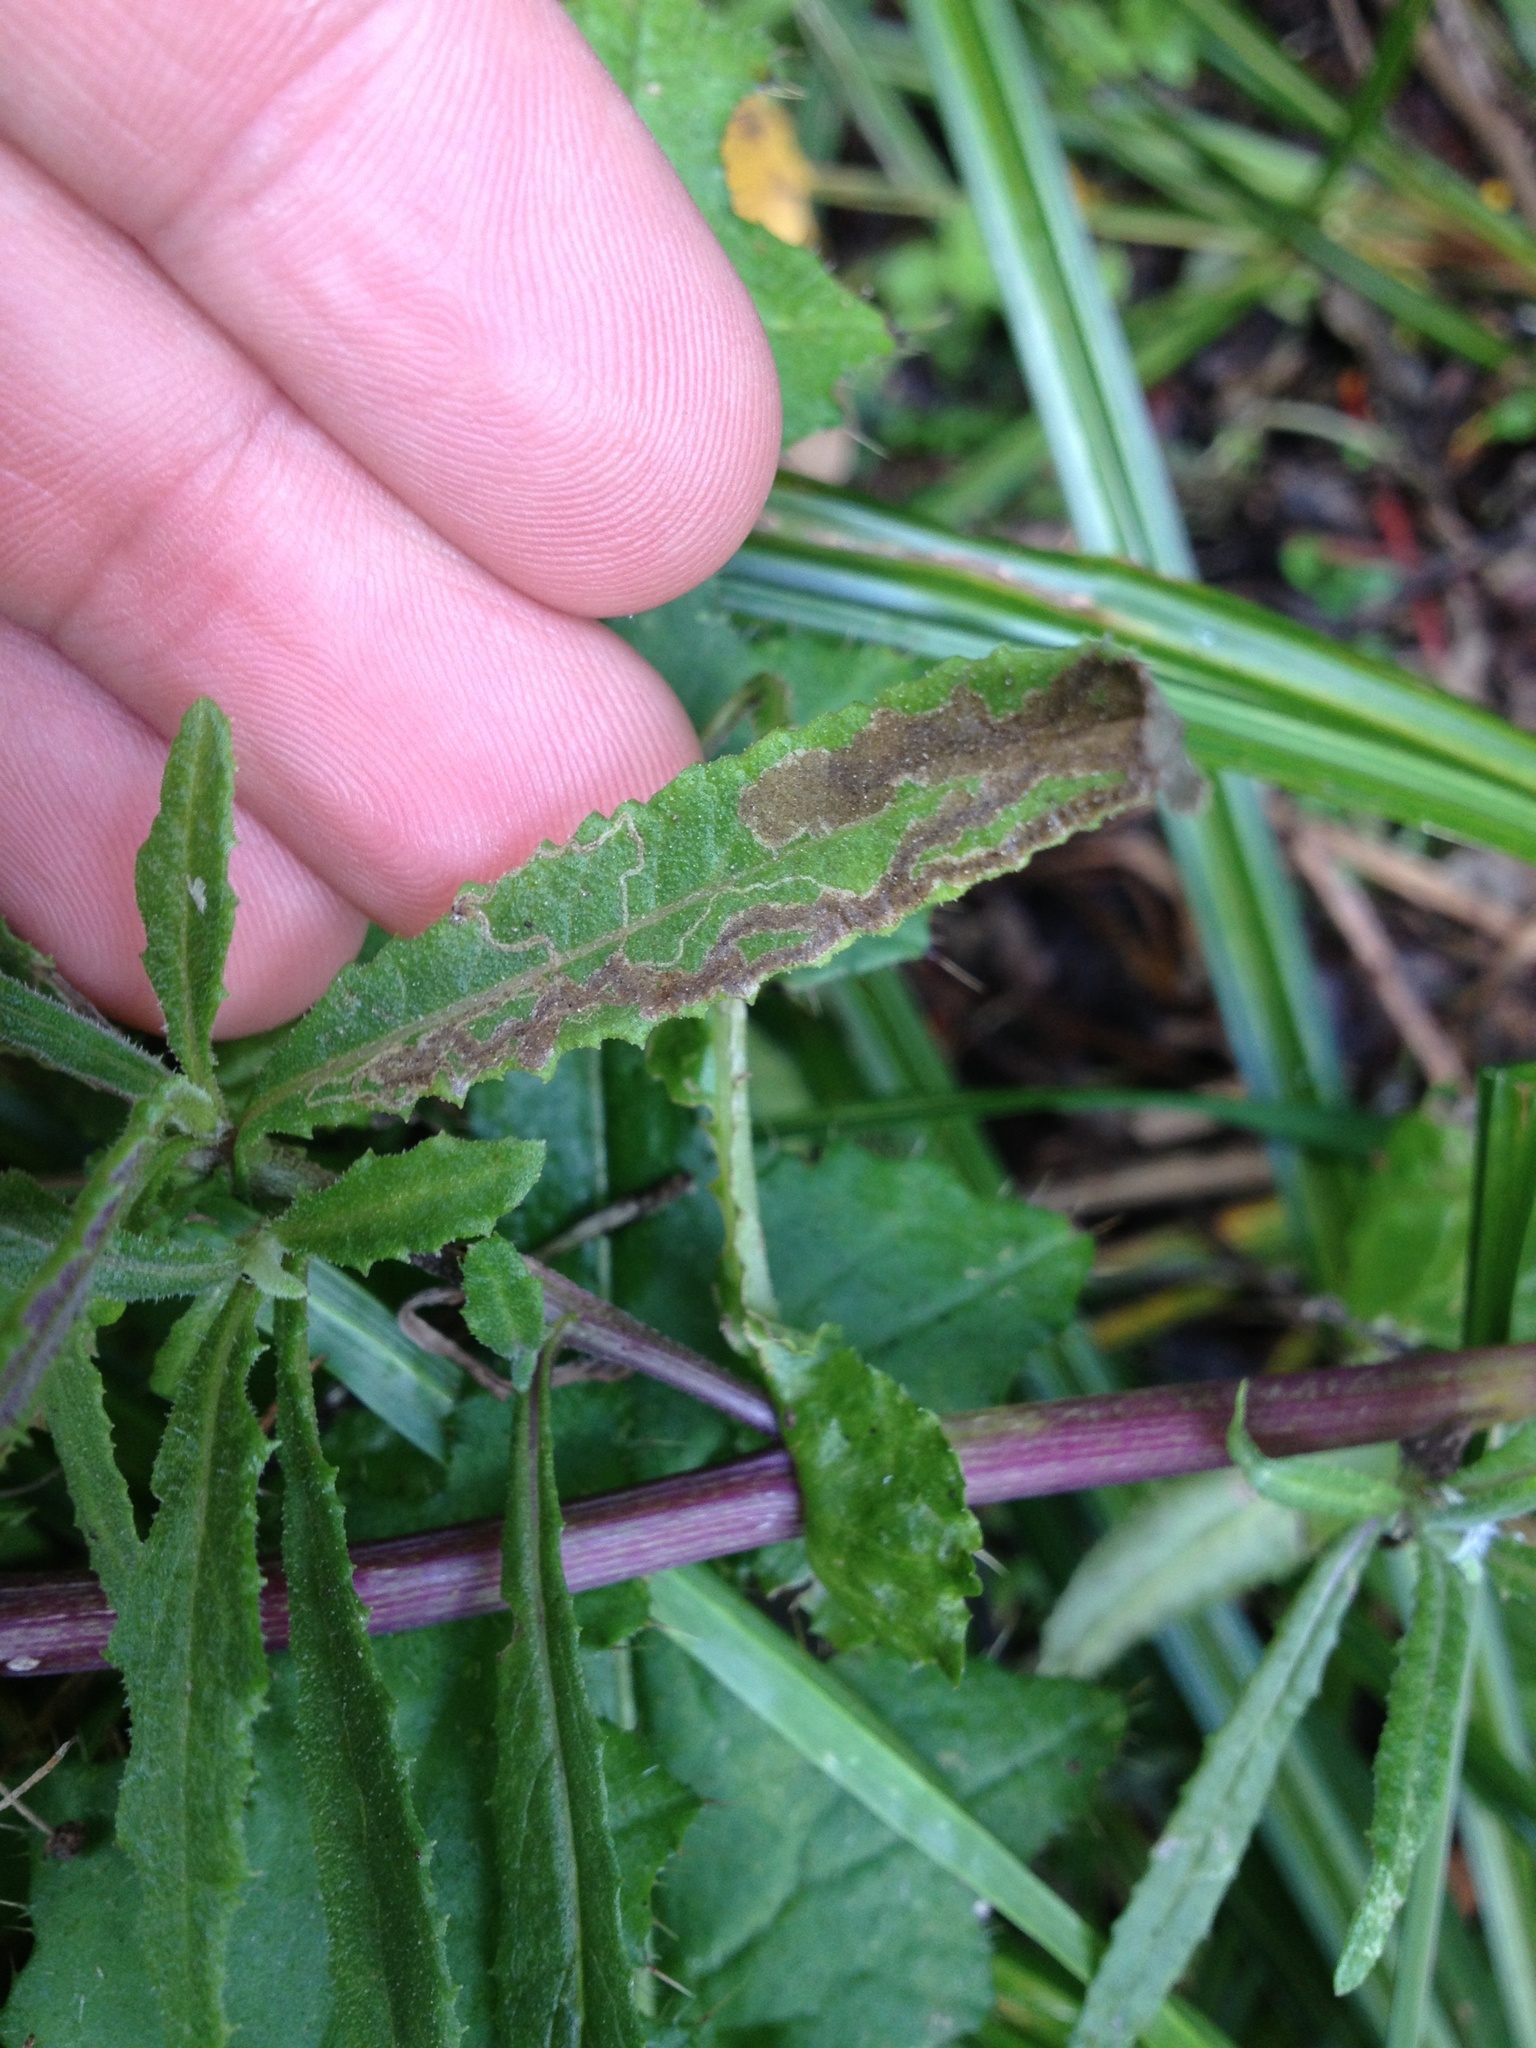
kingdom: Animalia
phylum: Arthropoda
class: Insecta
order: Lepidoptera
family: Nepticulidae
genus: Stigmella
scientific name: Stigmella ogygia
